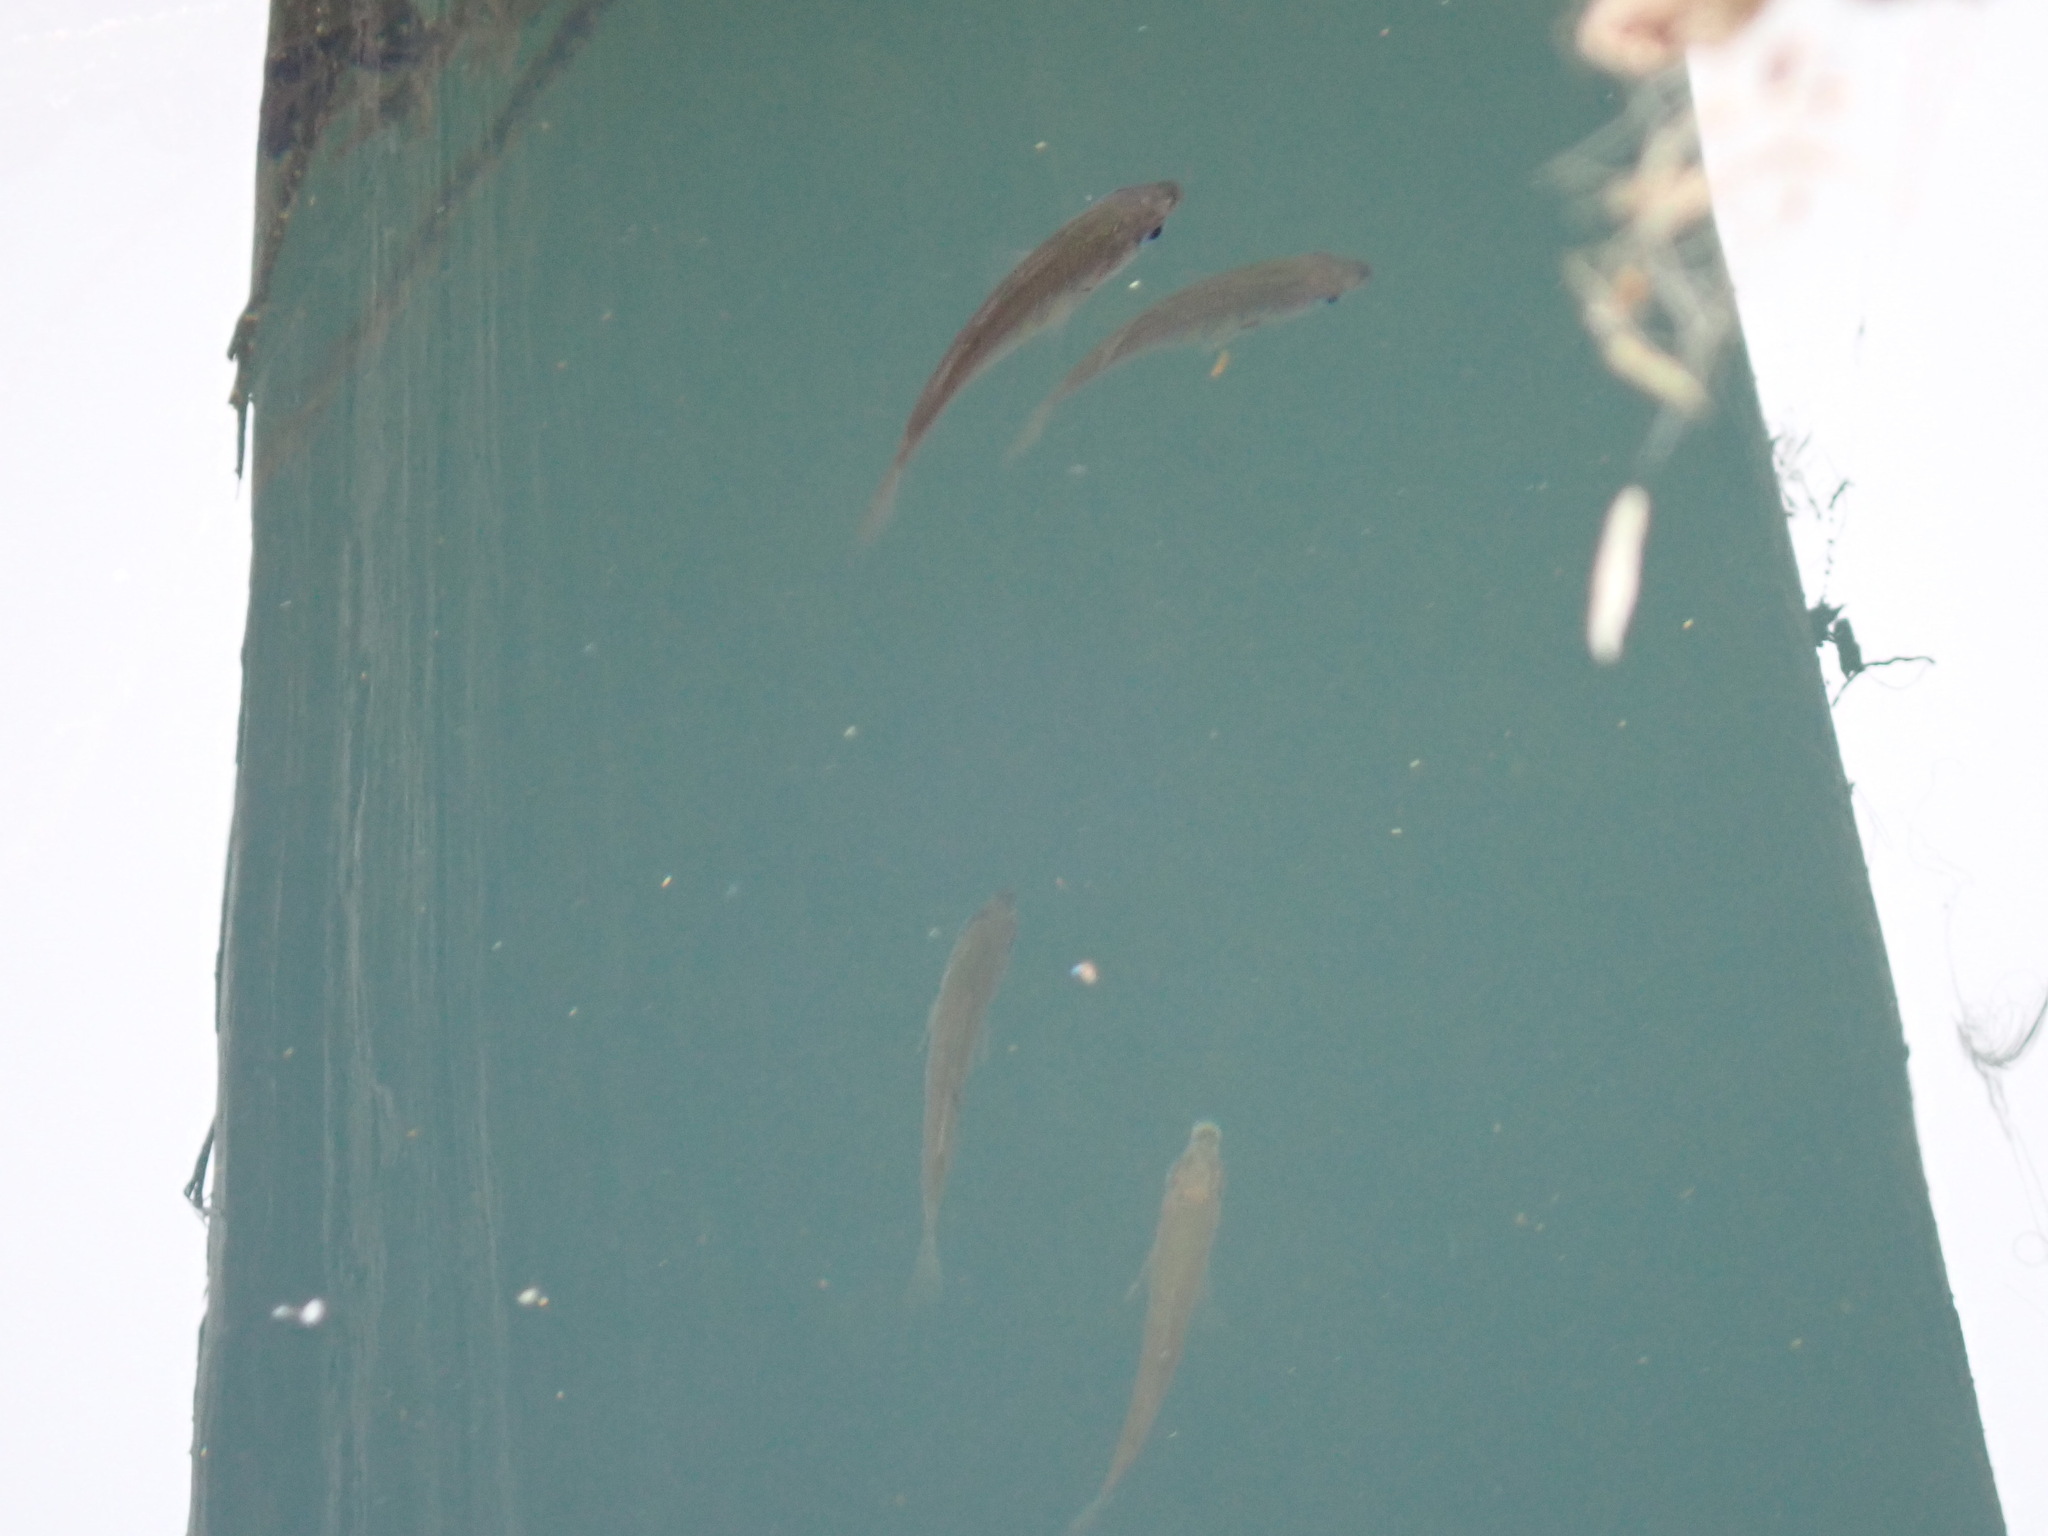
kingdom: Animalia
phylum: Chordata
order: Perciformes
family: Embiotocidae
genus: Cymatogaster
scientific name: Cymatogaster aggregata
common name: Shiner perch
